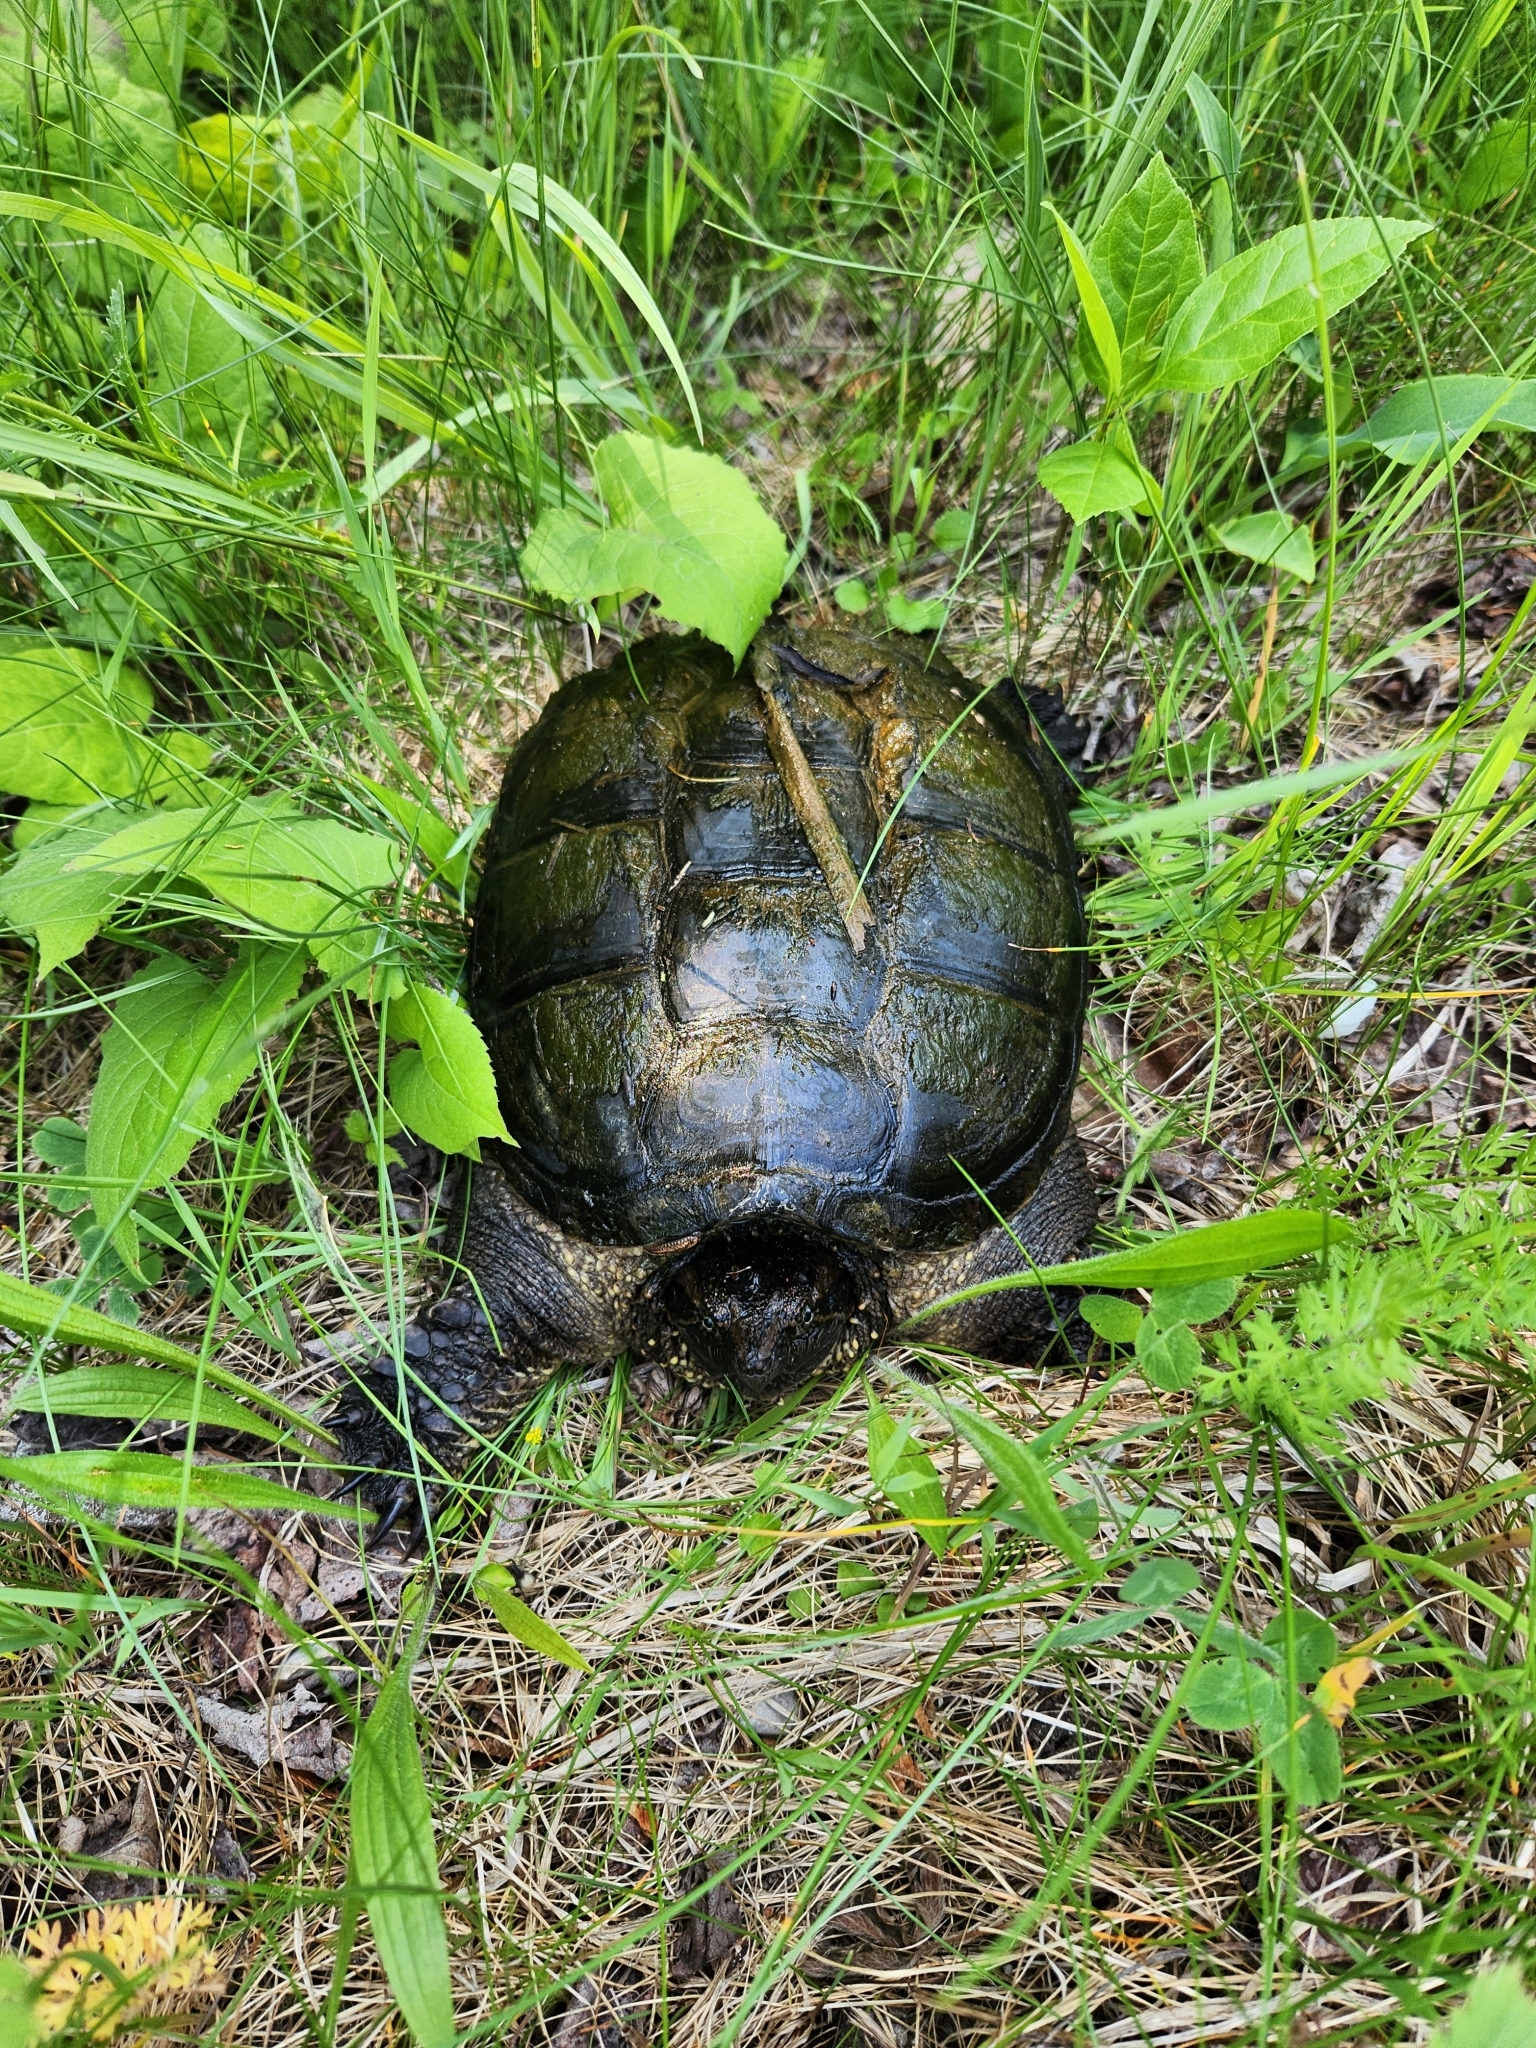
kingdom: Animalia
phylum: Chordata
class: Testudines
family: Chelydridae
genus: Chelydra
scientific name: Chelydra serpentina
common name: Common snapping turtle
